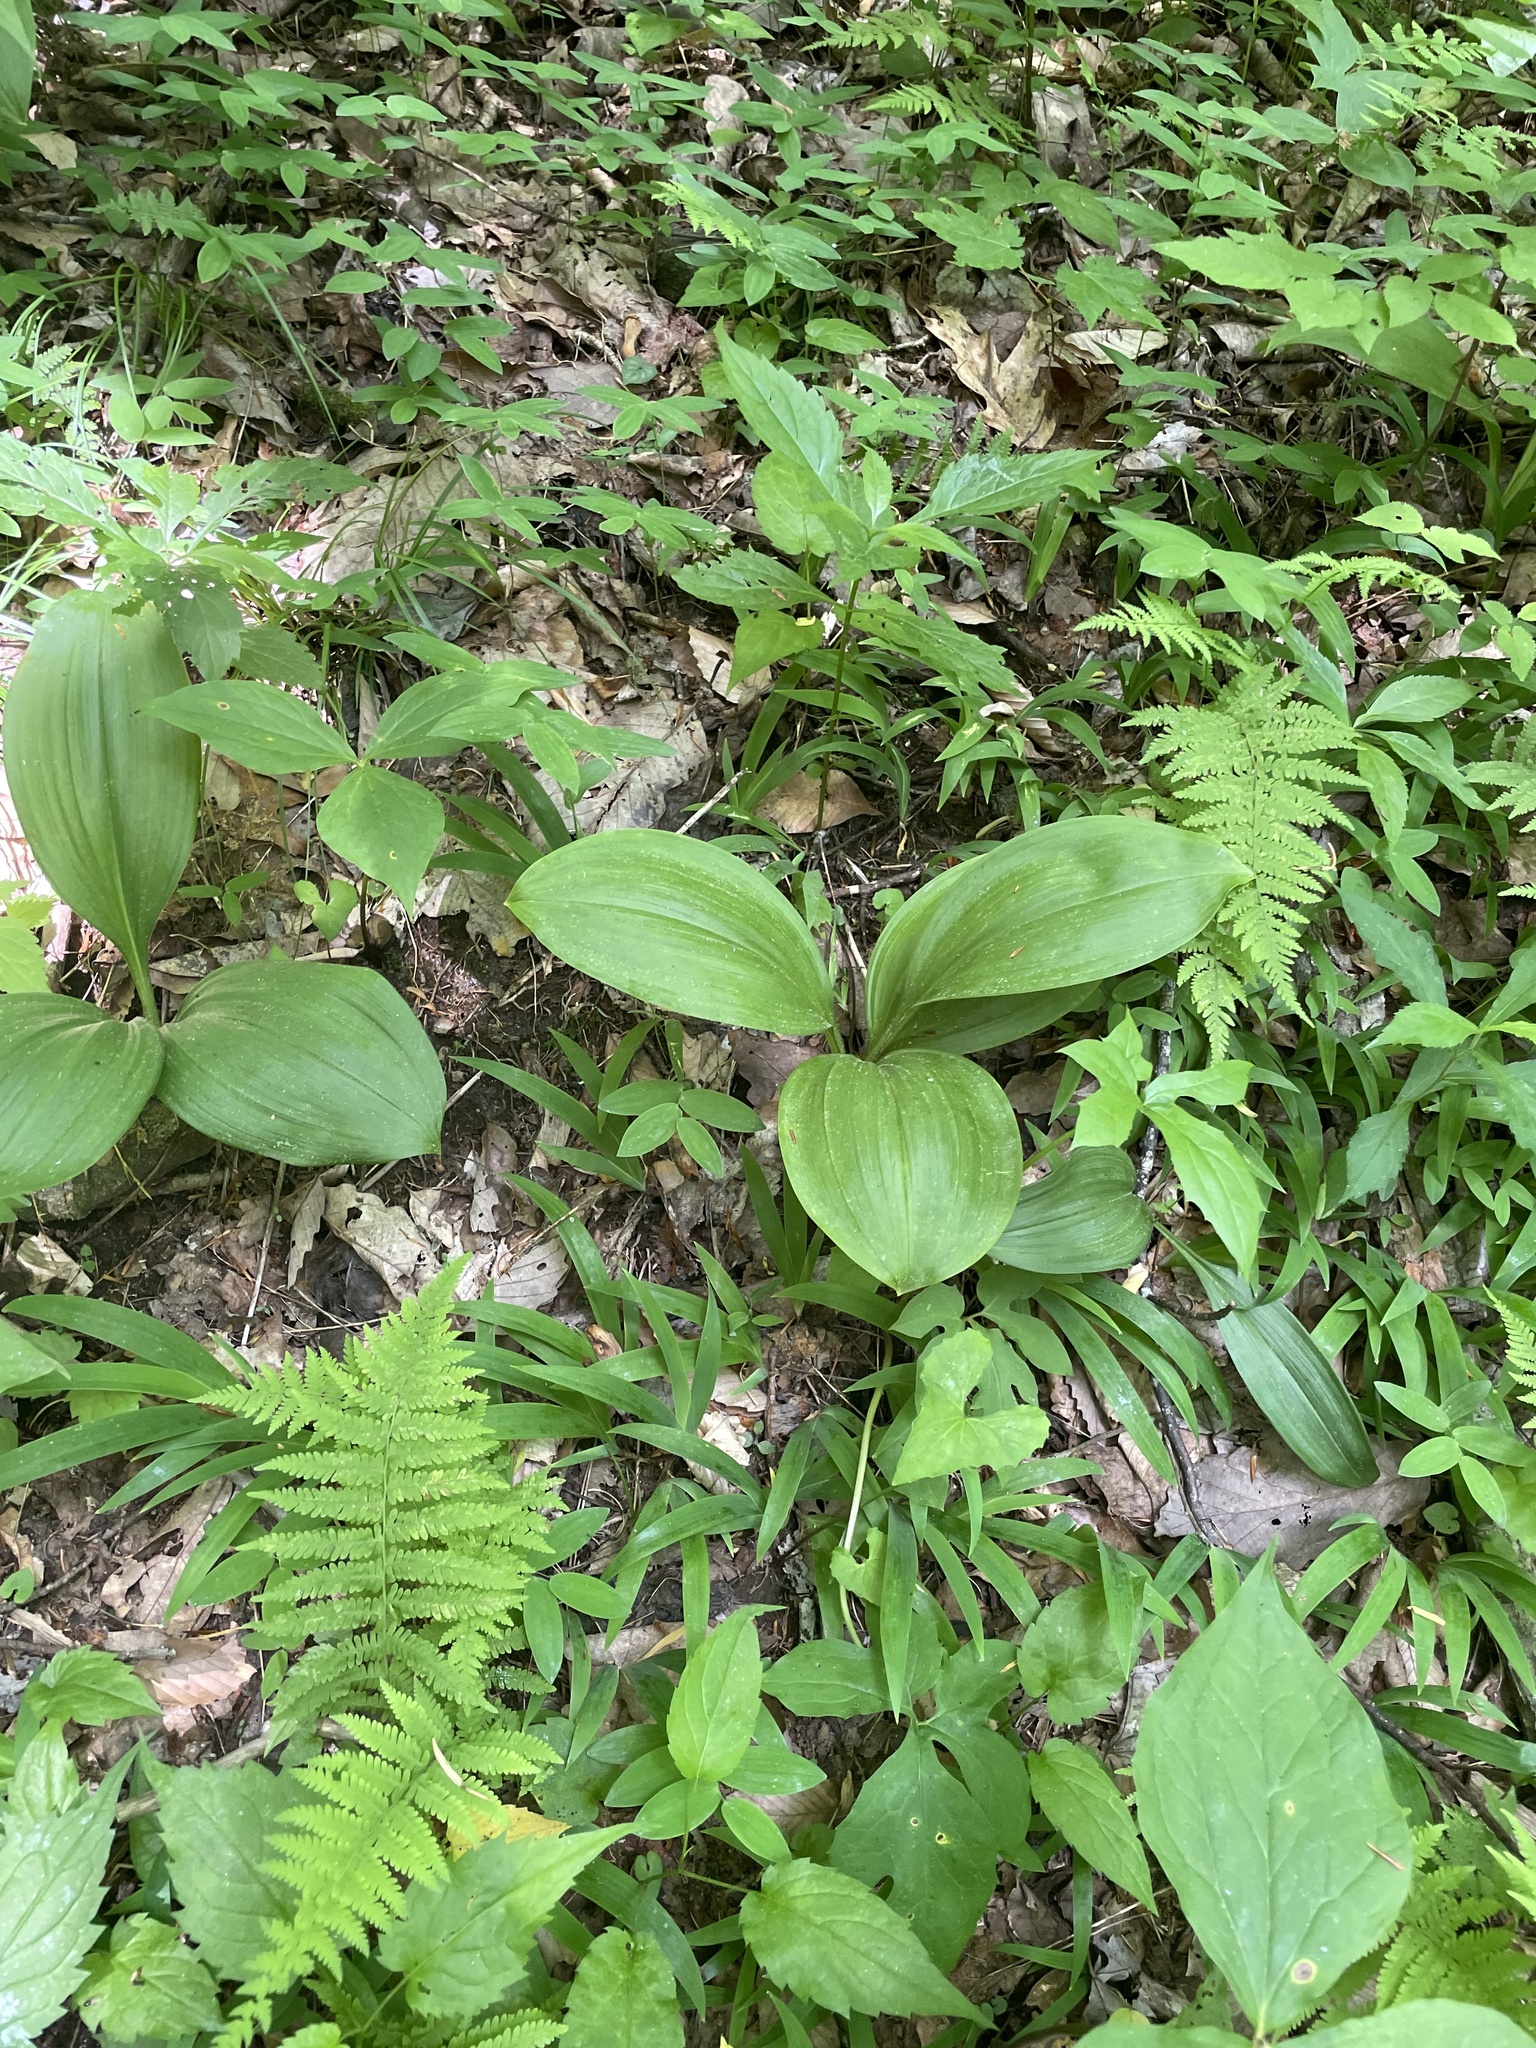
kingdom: Plantae
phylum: Tracheophyta
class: Liliopsida
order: Liliales
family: Melanthiaceae
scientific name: Melanthiaceae
